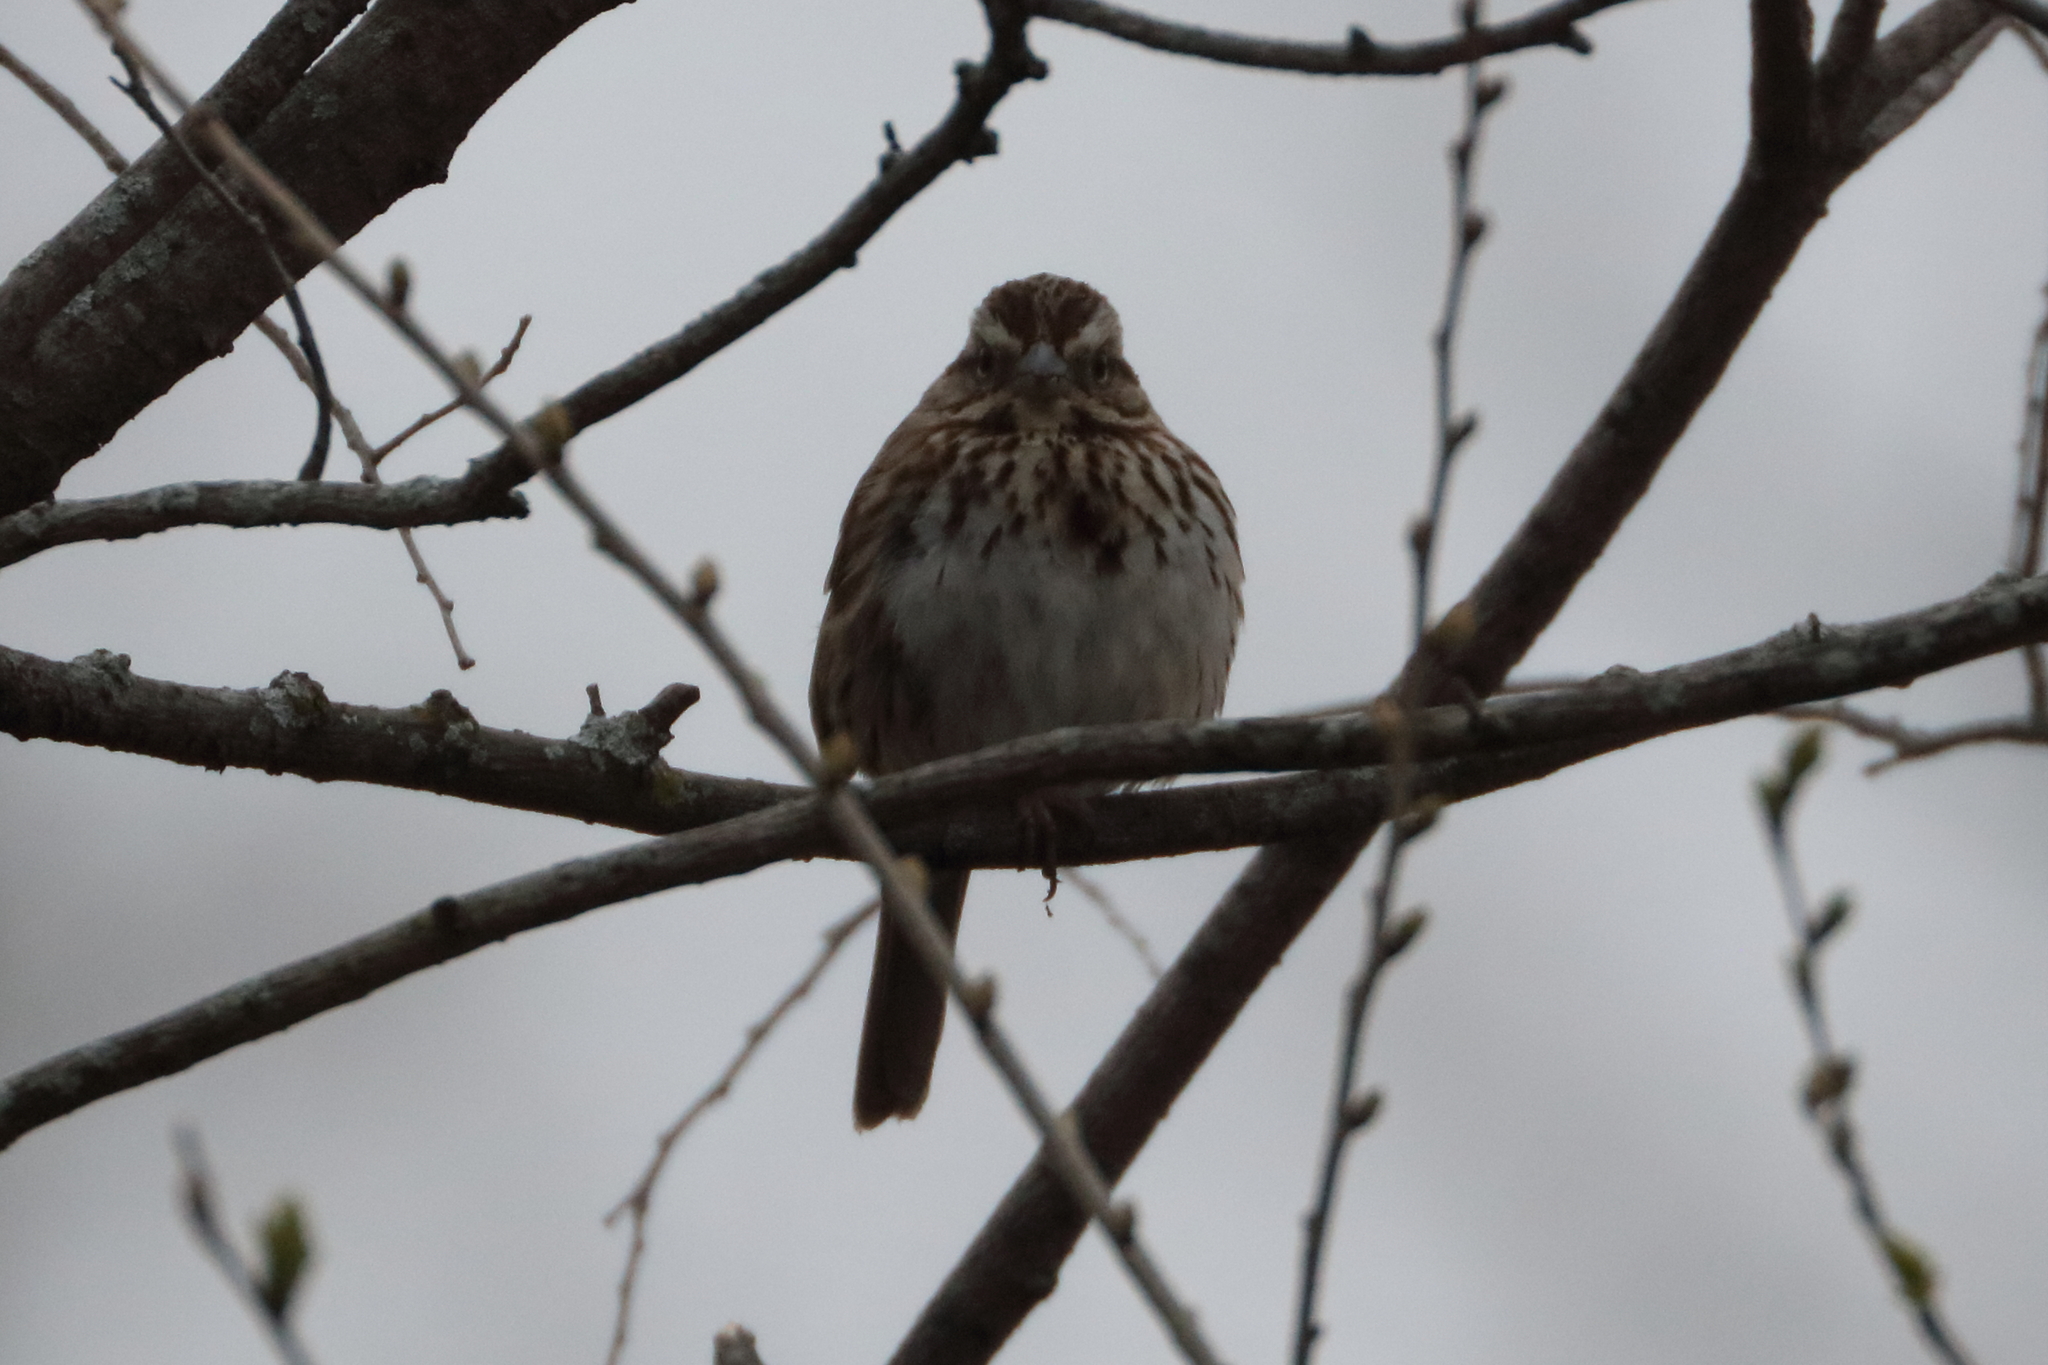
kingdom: Animalia
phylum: Chordata
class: Aves
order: Passeriformes
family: Passerellidae
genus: Melospiza
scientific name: Melospiza melodia
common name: Song sparrow
